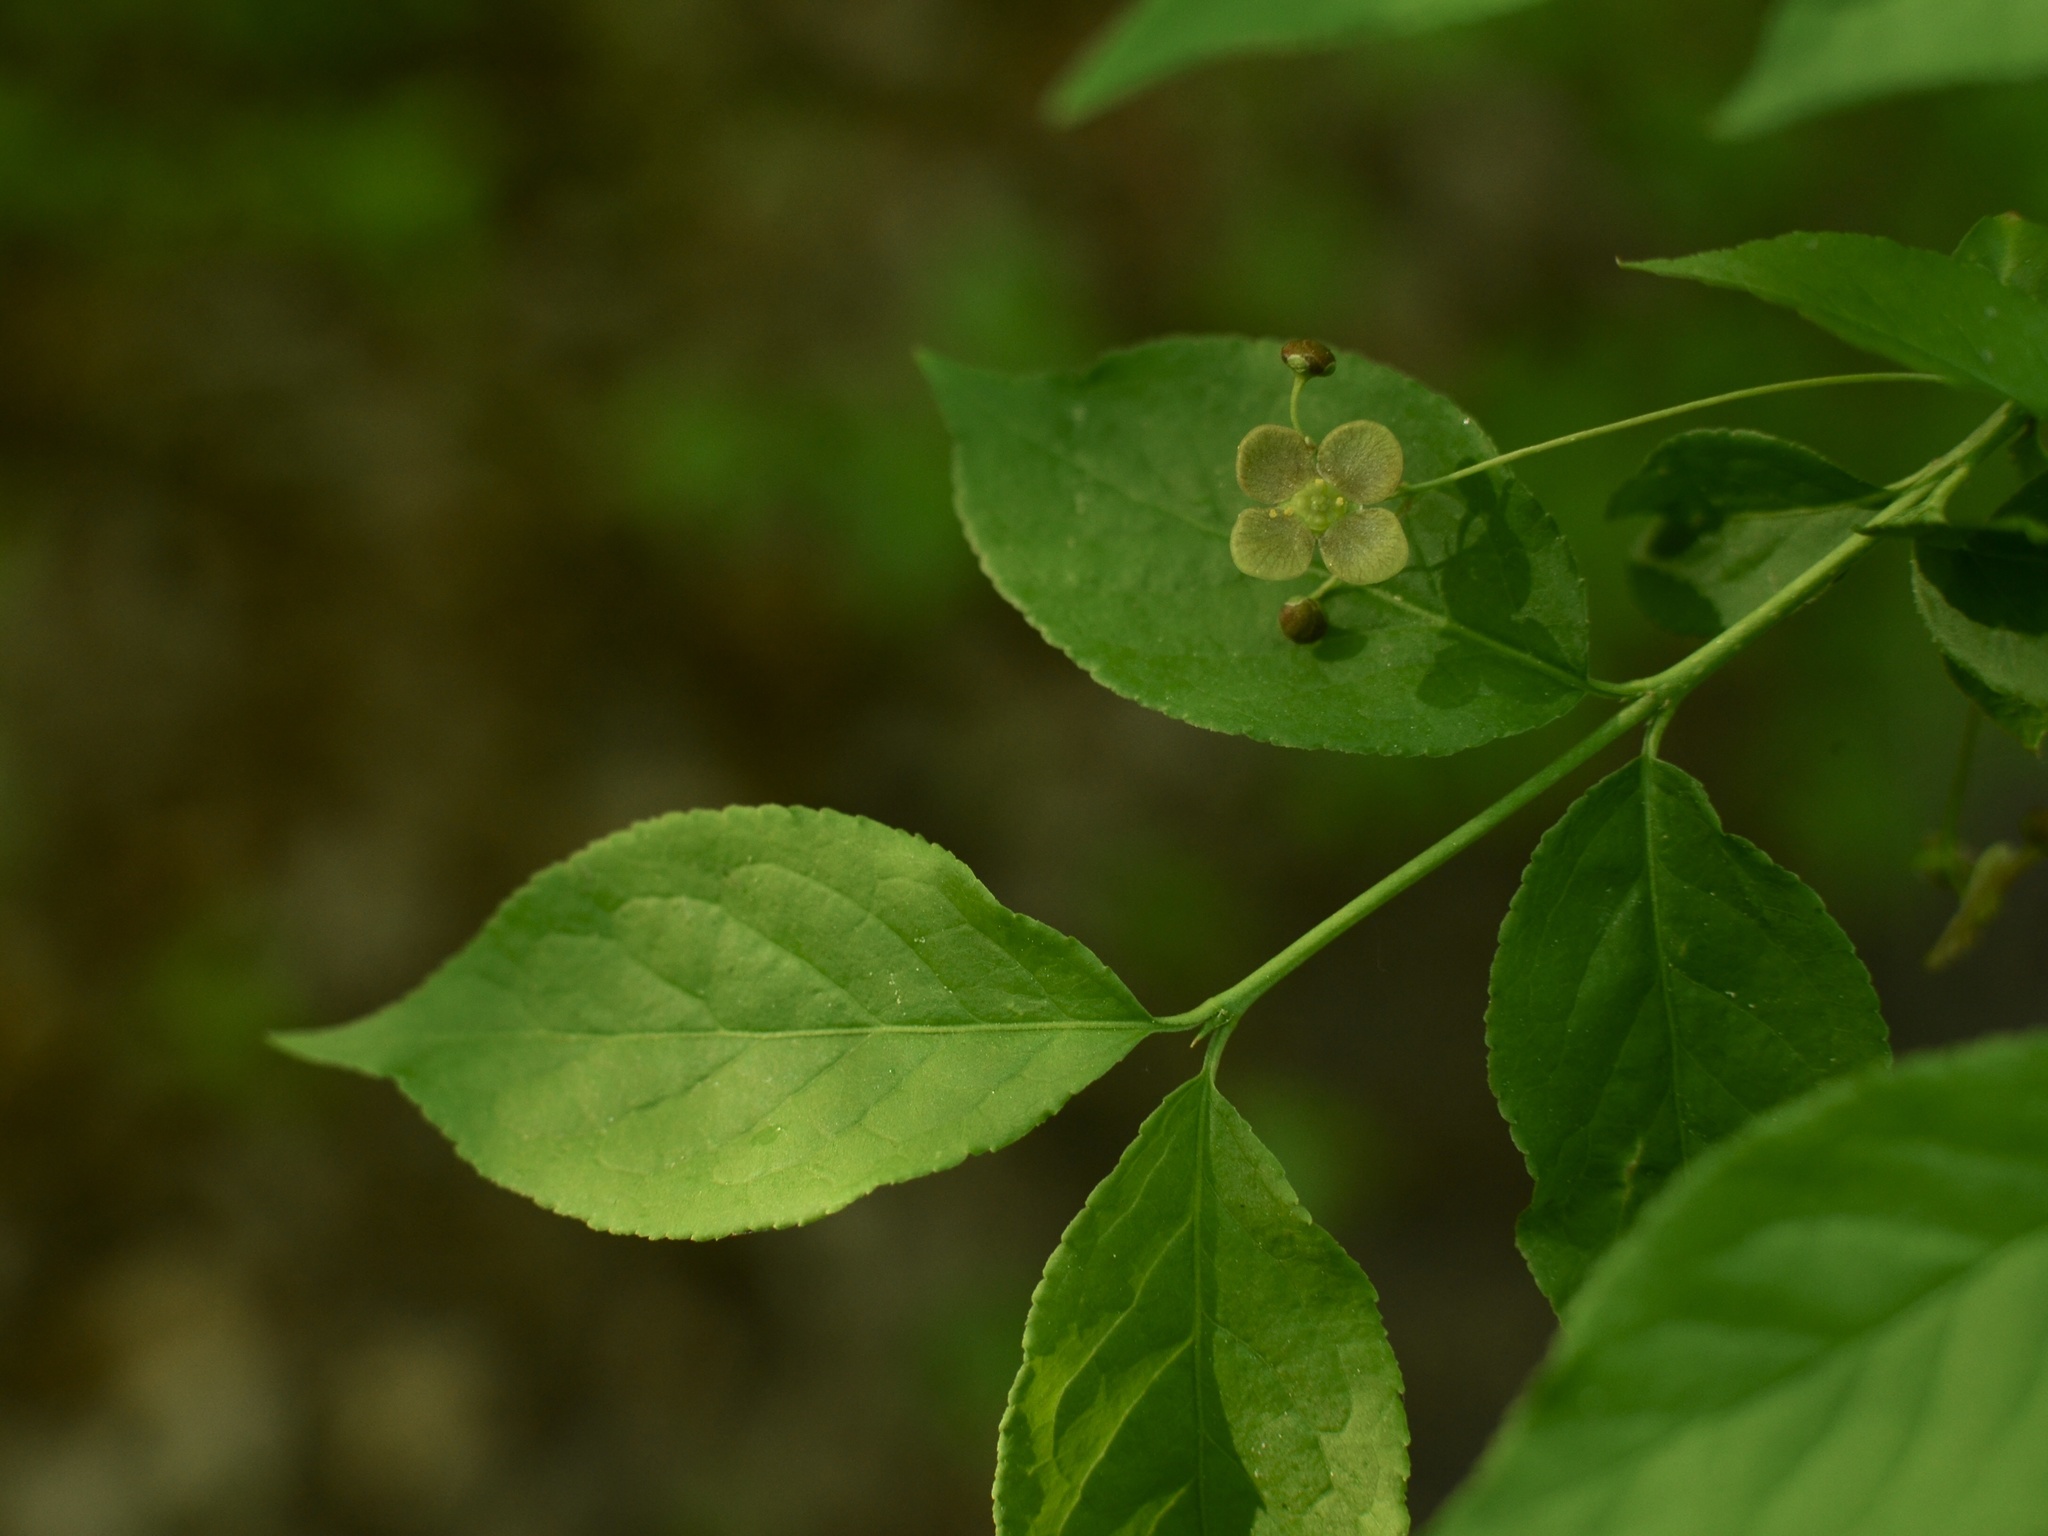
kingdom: Plantae
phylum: Tracheophyta
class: Magnoliopsida
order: Celastrales
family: Celastraceae
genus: Euonymus
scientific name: Euonymus verrucosus
